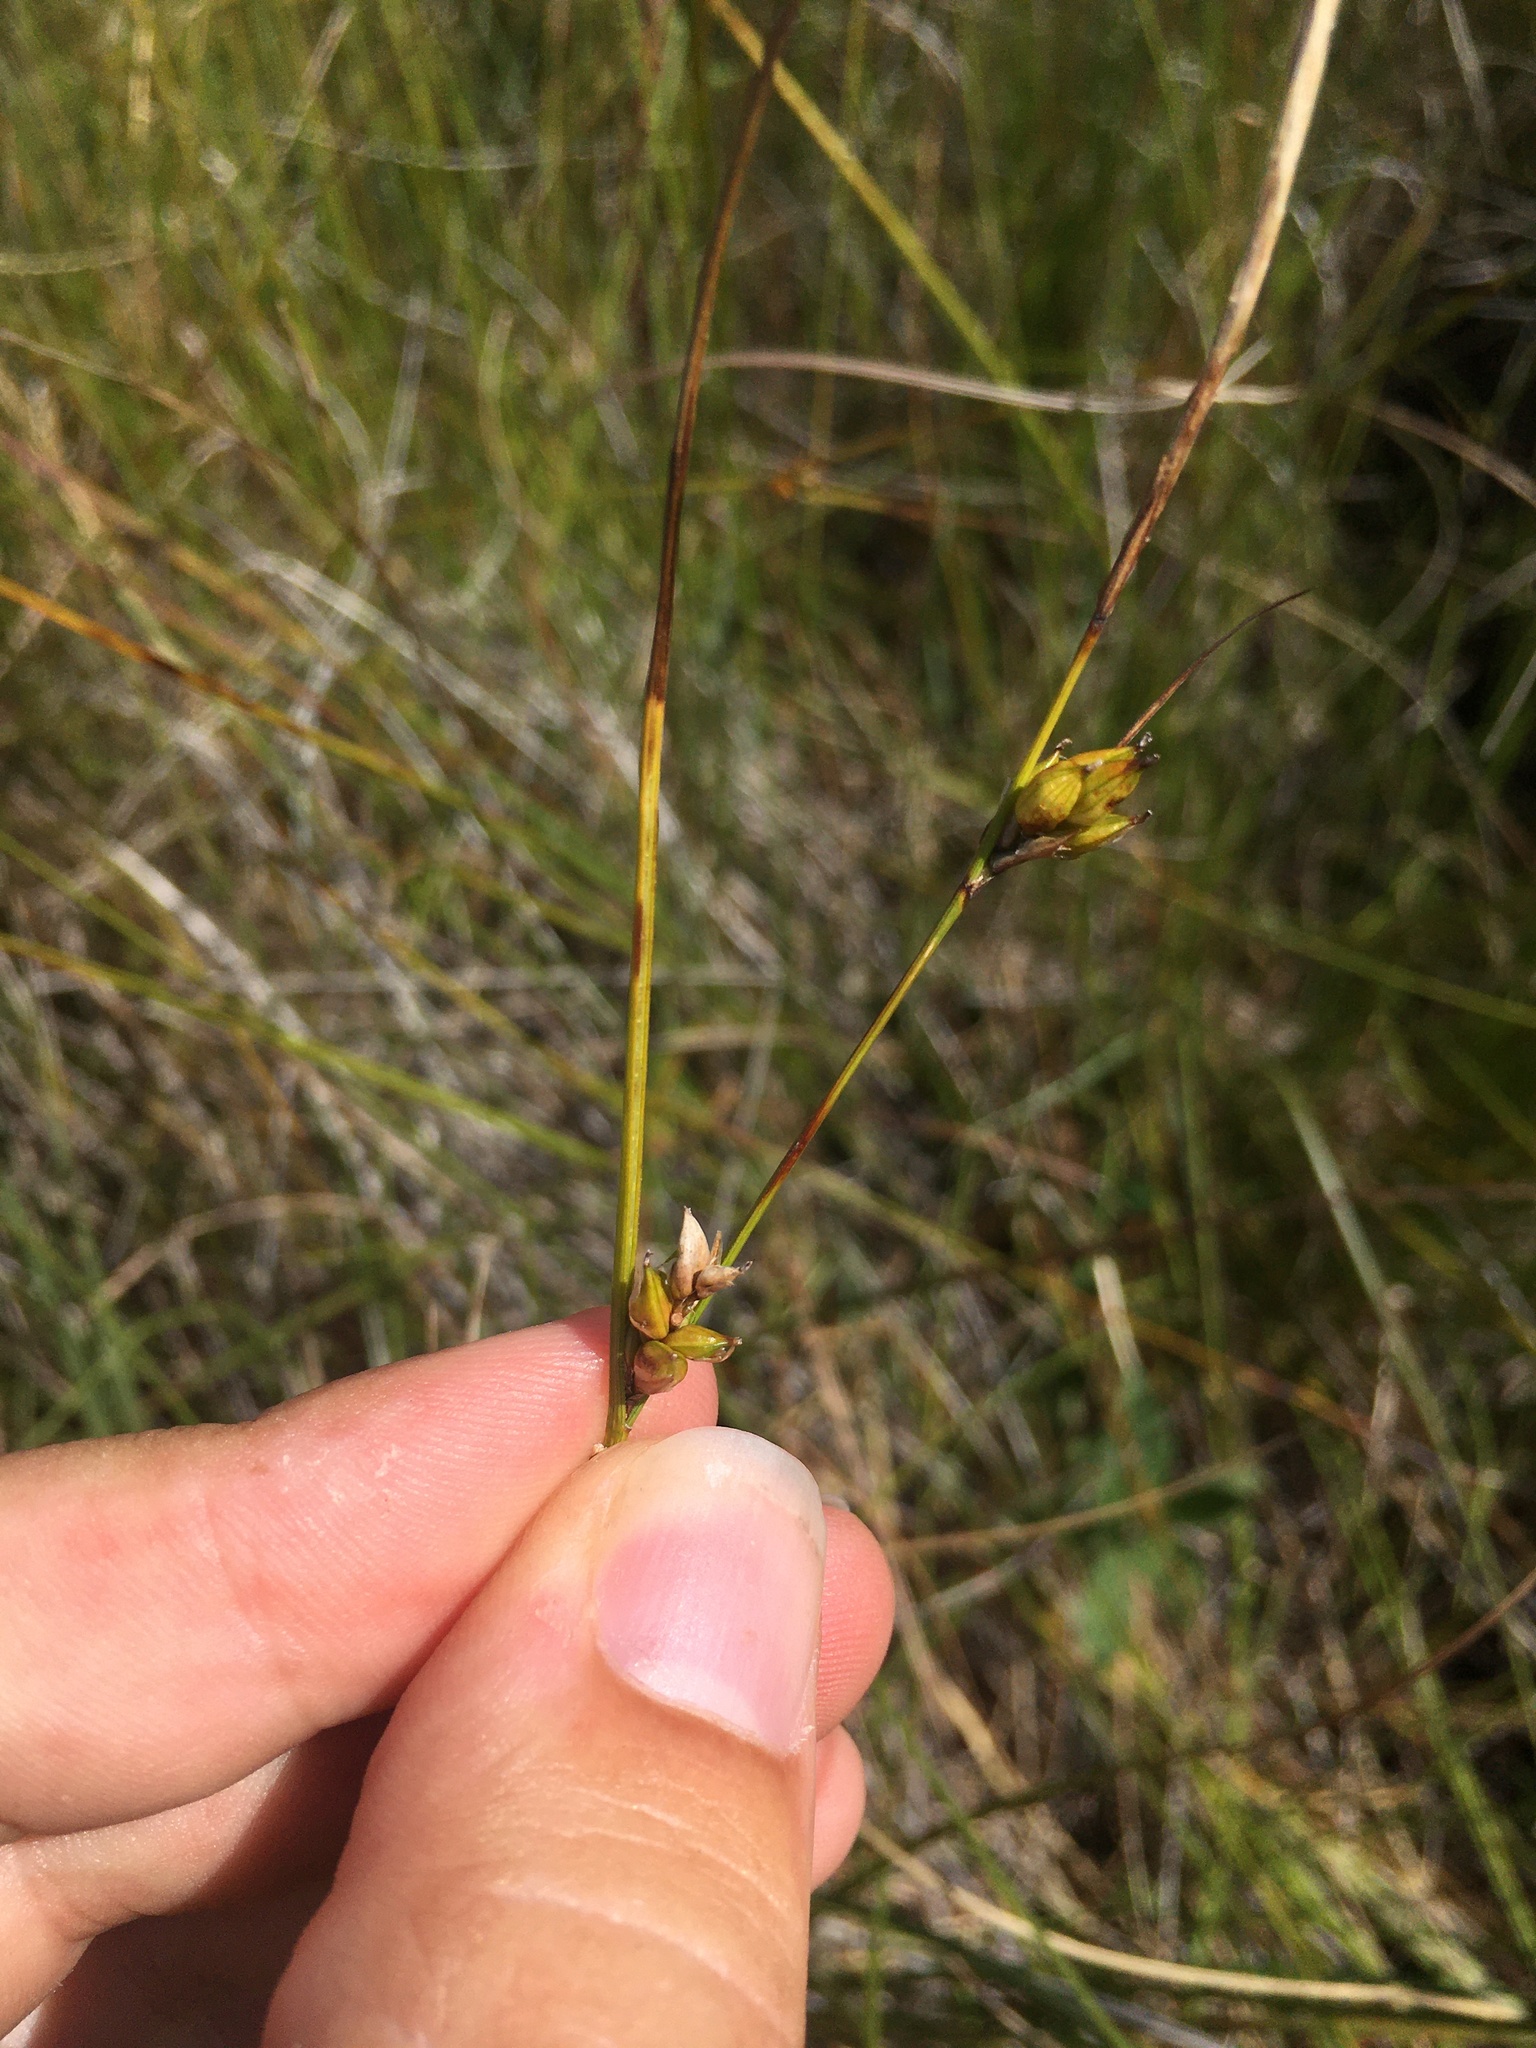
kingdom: Plantae
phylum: Tracheophyta
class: Liliopsida
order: Poales
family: Cyperaceae
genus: Carex
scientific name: Carex oligosperma
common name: Few-seed sedge
